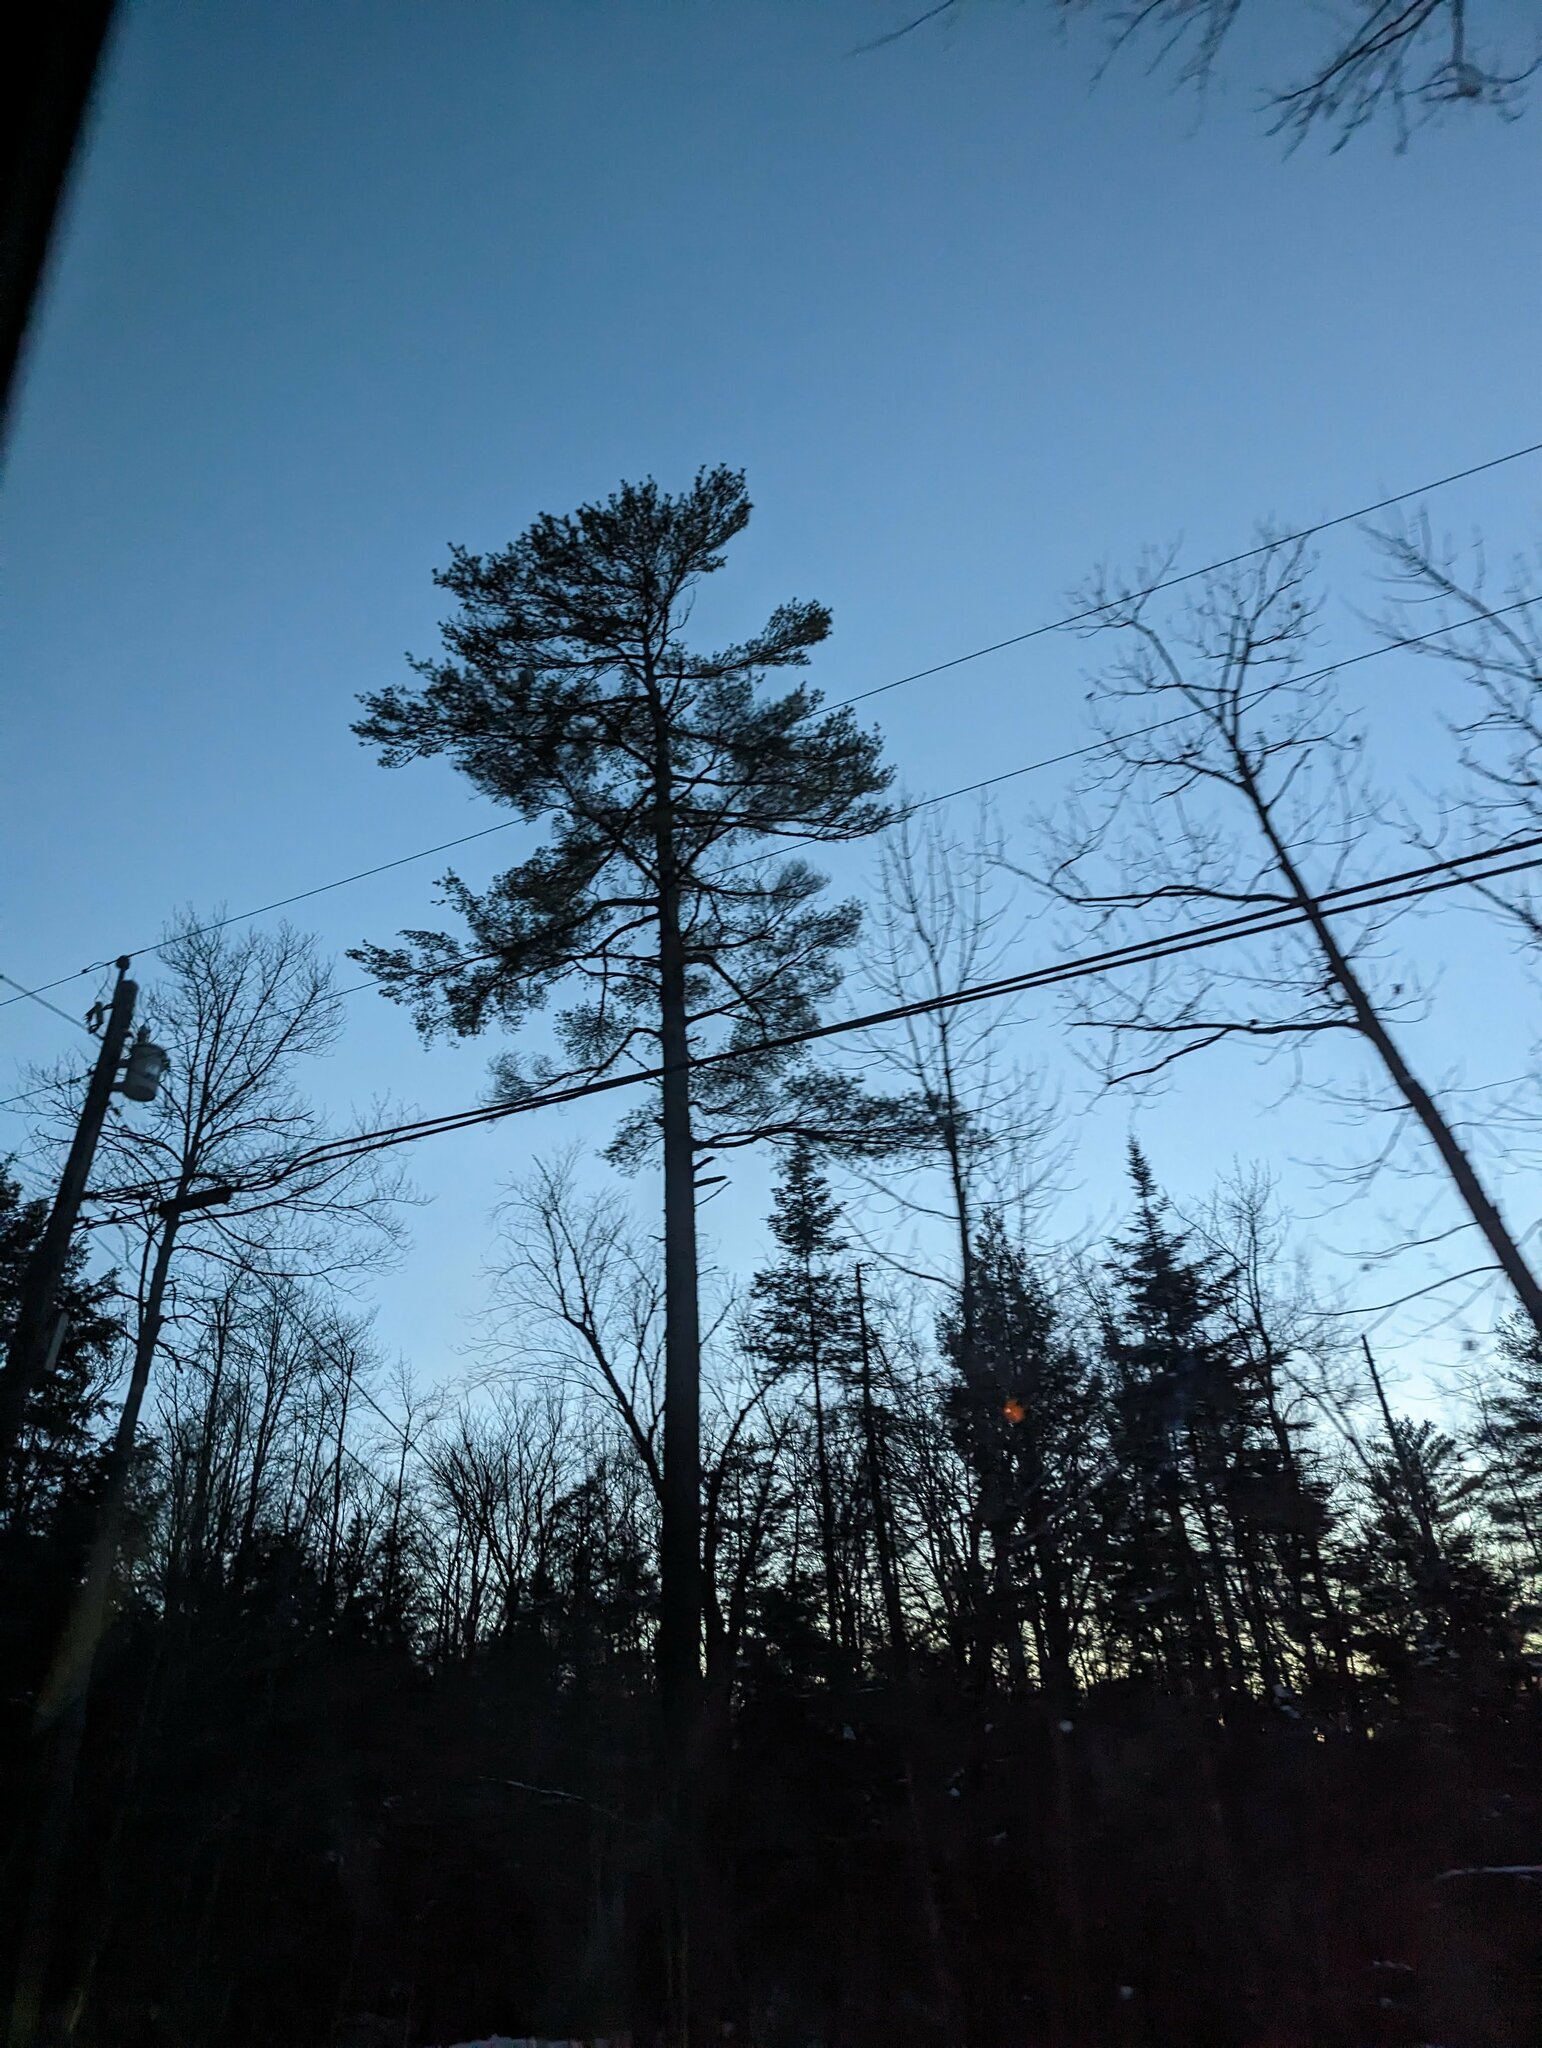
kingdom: Plantae
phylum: Tracheophyta
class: Pinopsida
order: Pinales
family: Pinaceae
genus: Pinus
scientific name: Pinus strobus
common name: Weymouth pine
